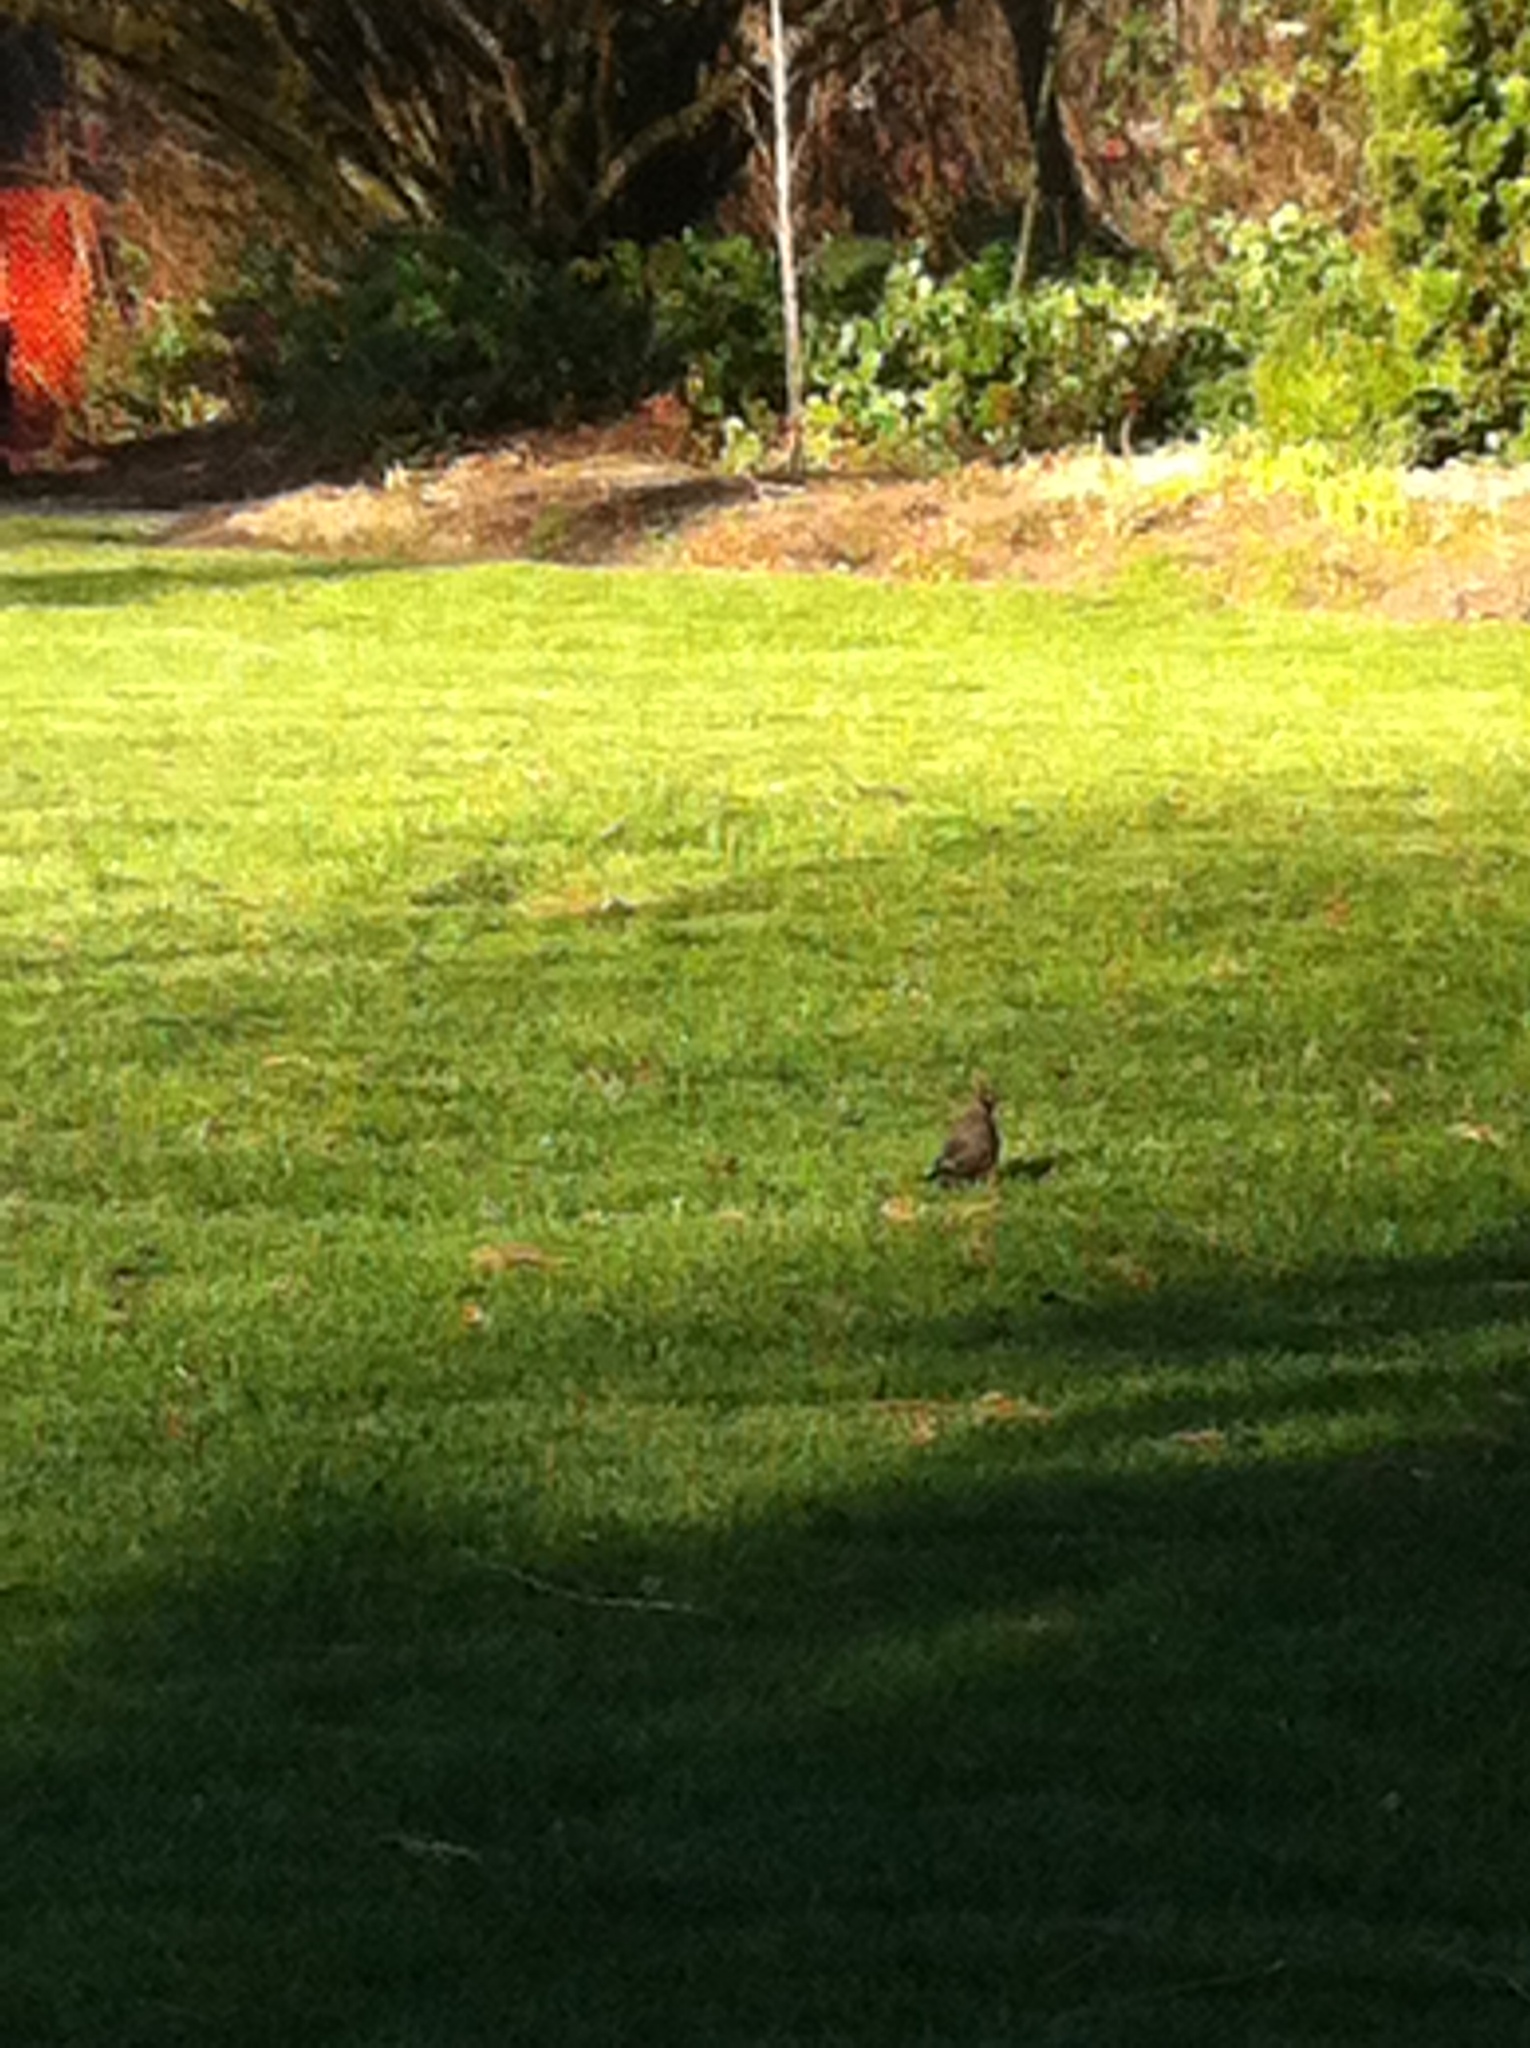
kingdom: Animalia
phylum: Chordata
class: Aves
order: Passeriformes
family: Turdidae
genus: Turdus
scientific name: Turdus migratorius
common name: American robin
